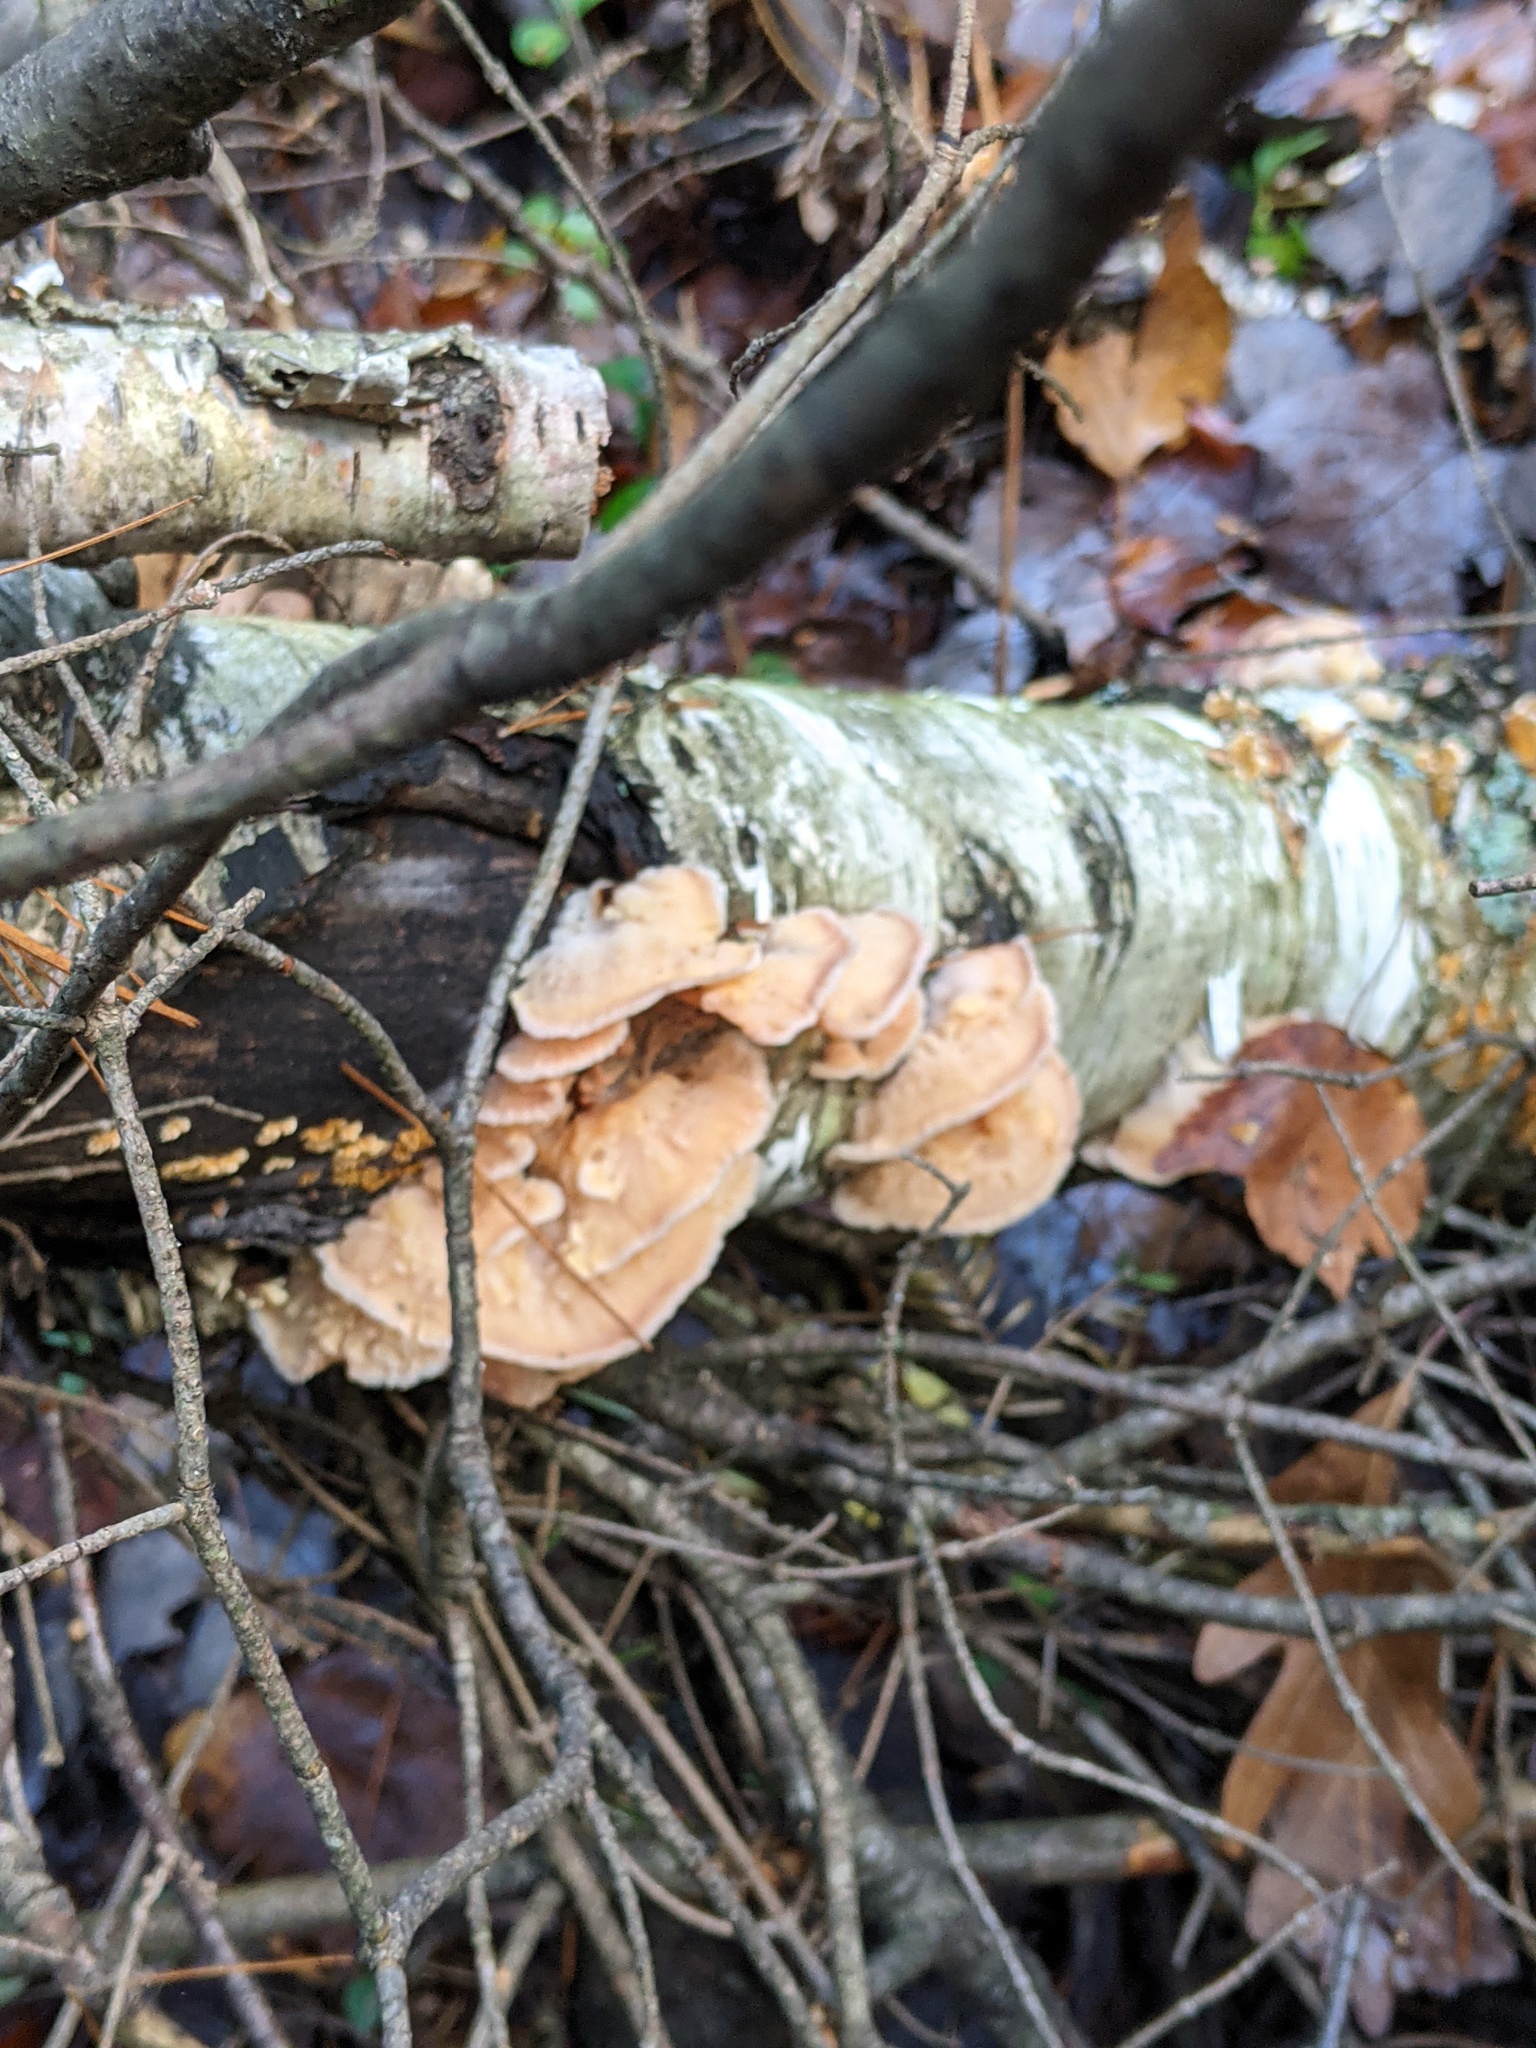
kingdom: Fungi
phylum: Basidiomycota
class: Agaricomycetes
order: Polyporales
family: Meruliaceae
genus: Phlebia
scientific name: Phlebia tremellosa
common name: Jelly rot
